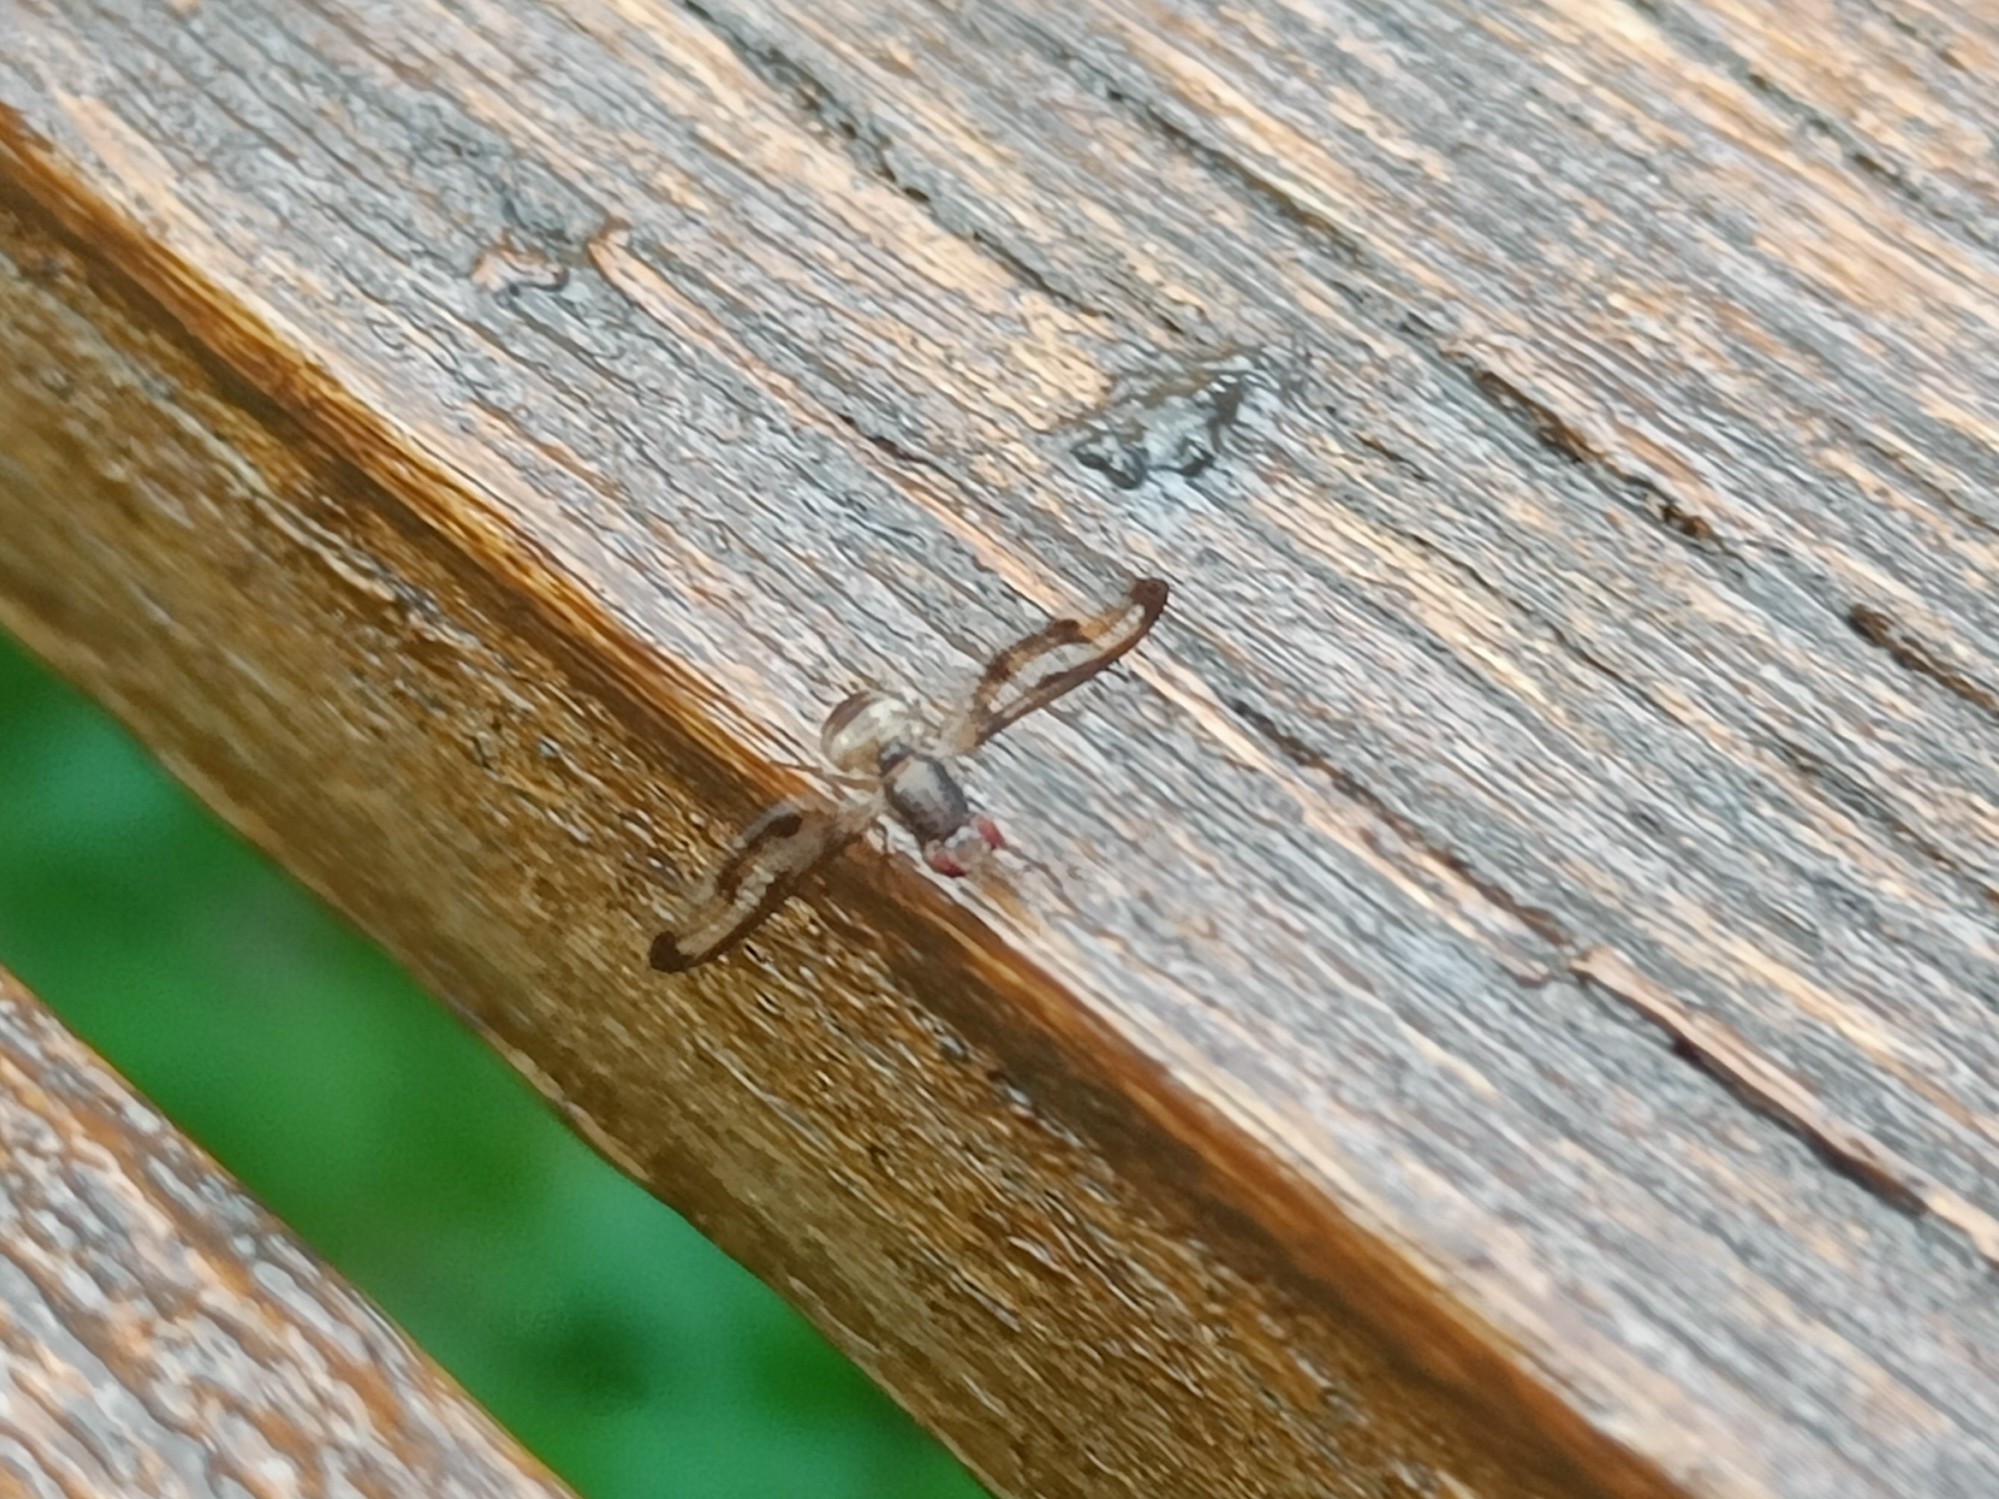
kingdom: Animalia
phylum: Arthropoda
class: Insecta
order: Diptera
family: Pallopteridae
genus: Toxonevra
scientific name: Toxonevra muliebris
